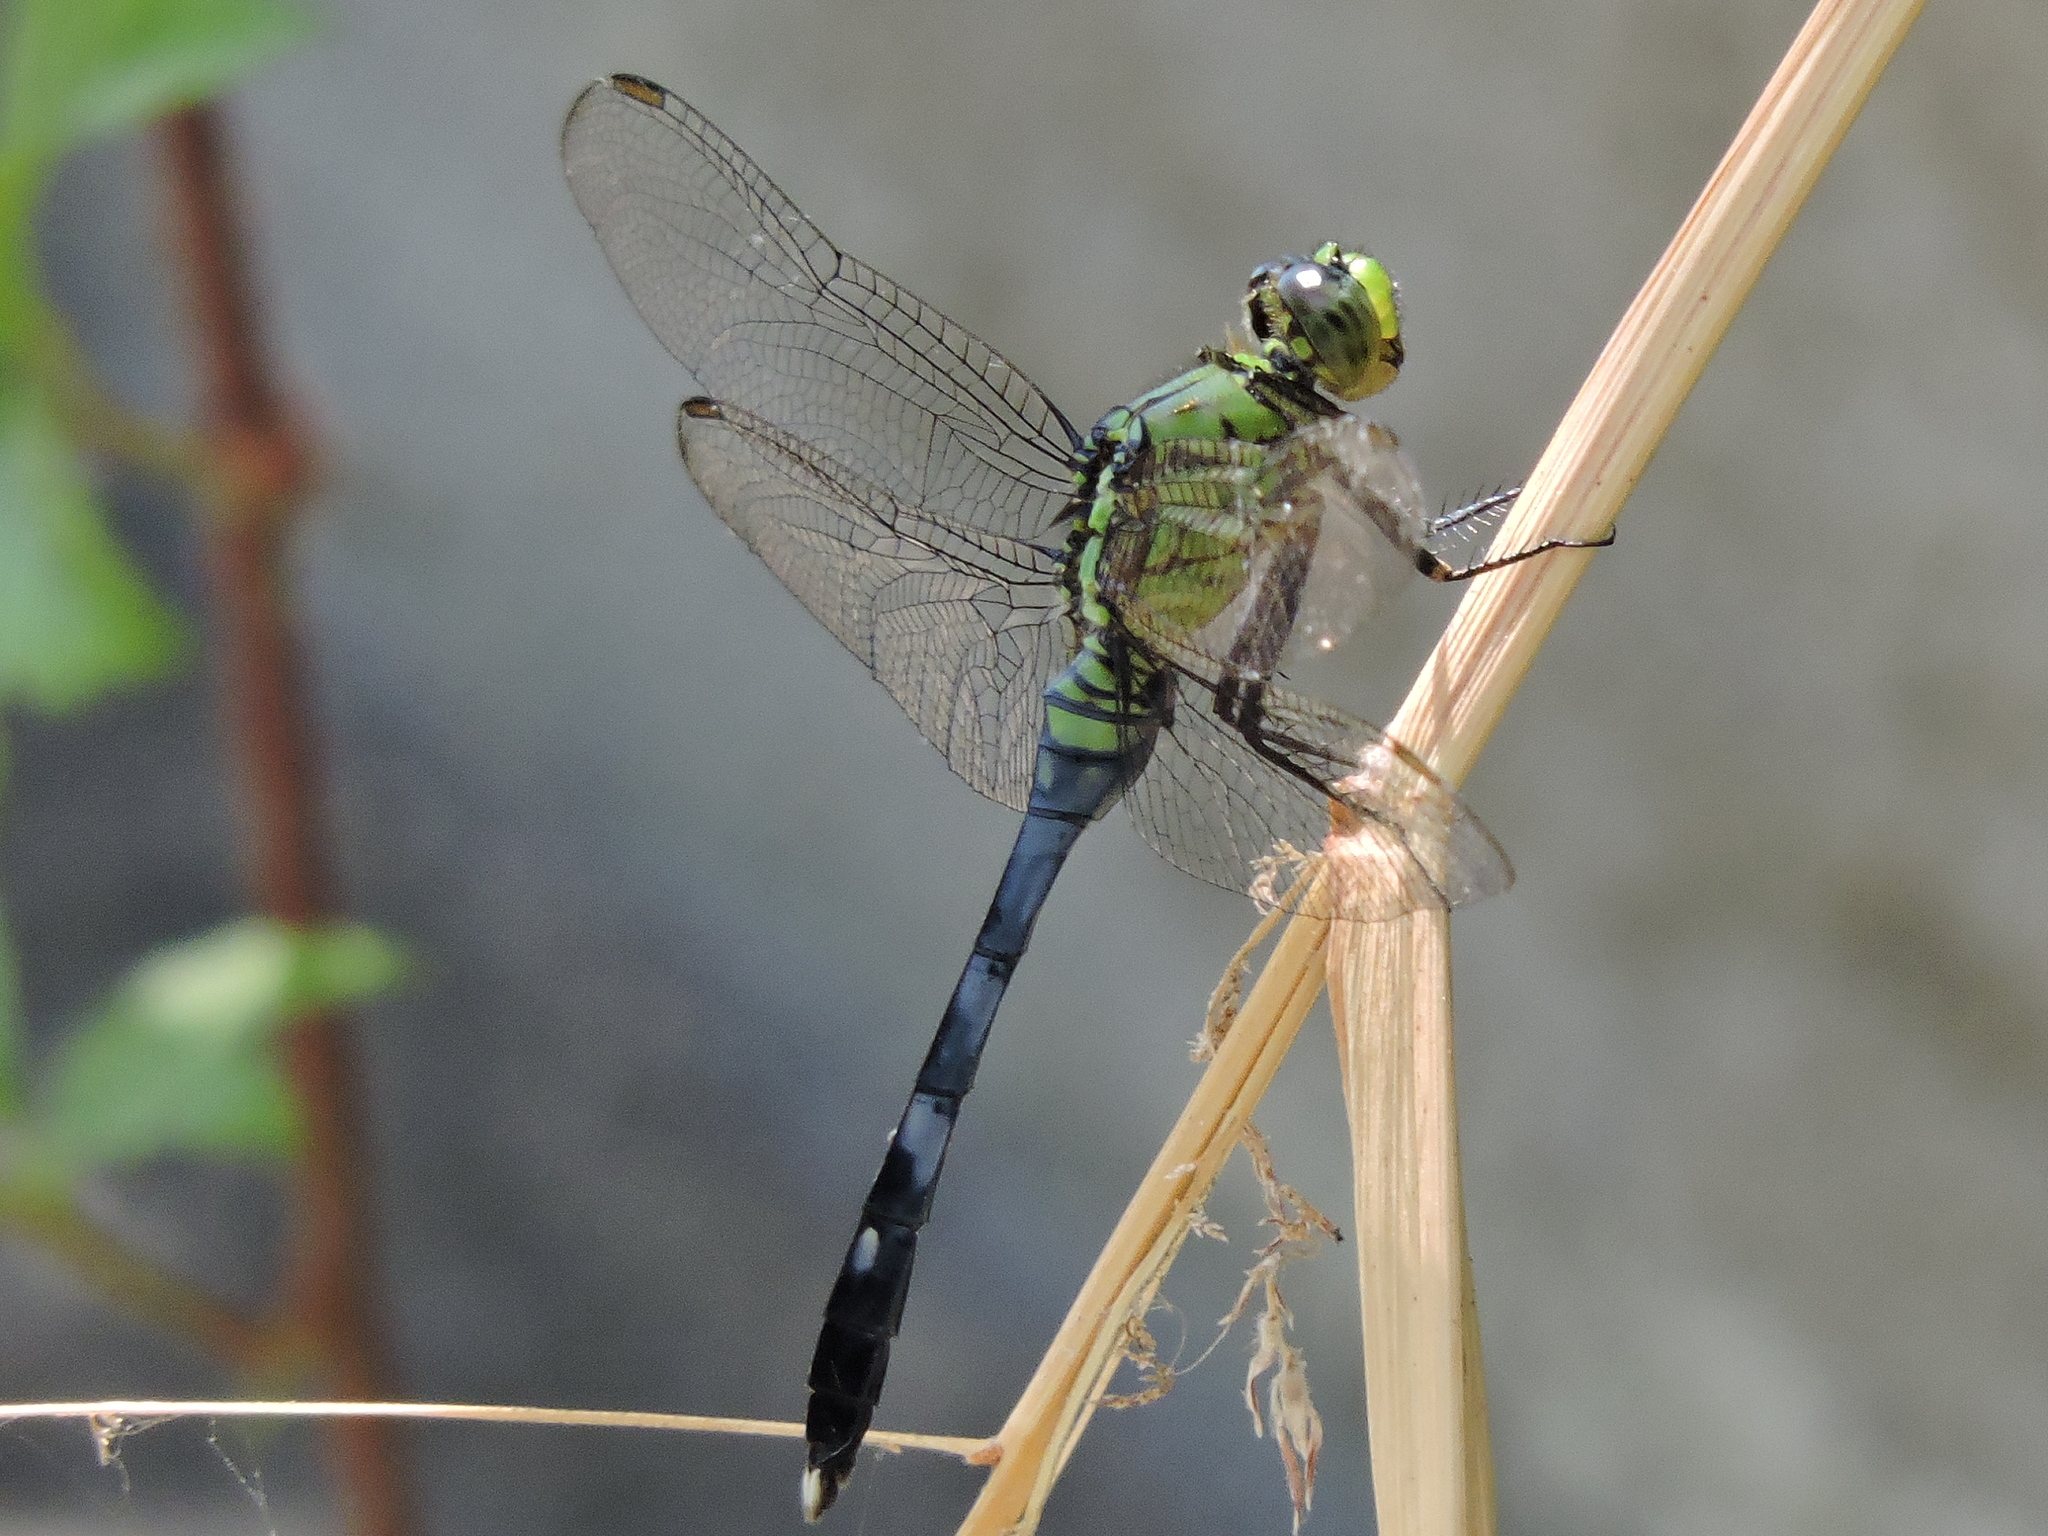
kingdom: Animalia
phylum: Arthropoda
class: Insecta
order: Odonata
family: Libellulidae
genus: Erythemis
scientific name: Erythemis simplicicollis
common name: Eastern pondhawk
